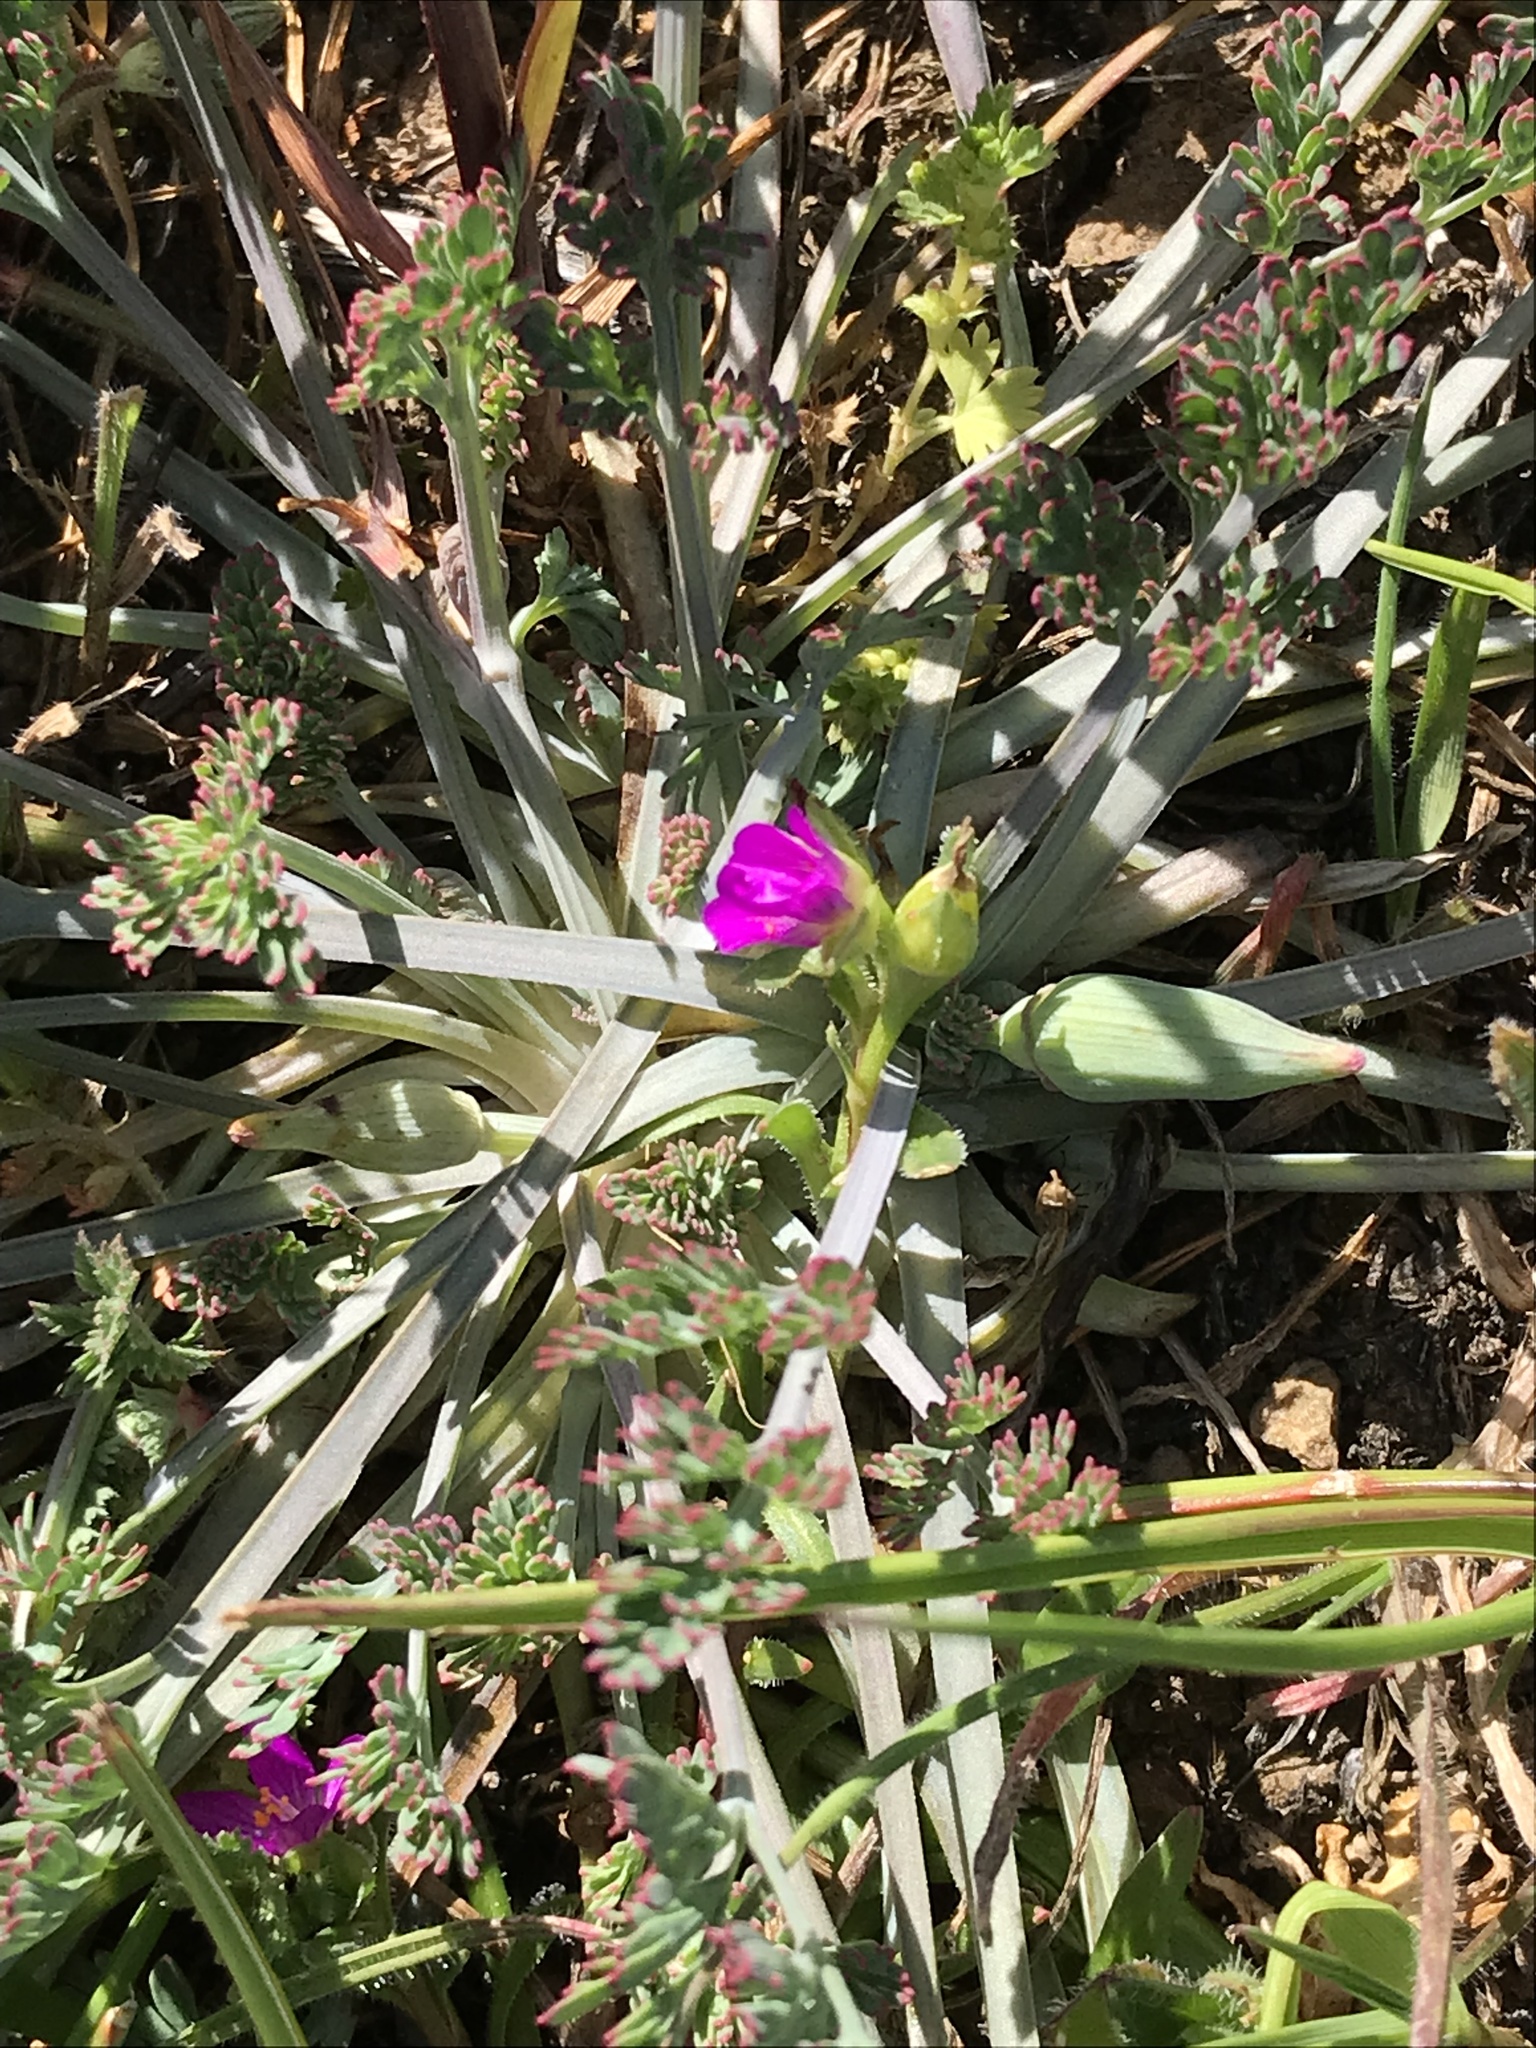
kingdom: Plantae
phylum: Tracheophyta
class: Magnoliopsida
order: Caryophyllales
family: Montiaceae
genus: Calandrinia
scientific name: Calandrinia menziesii
